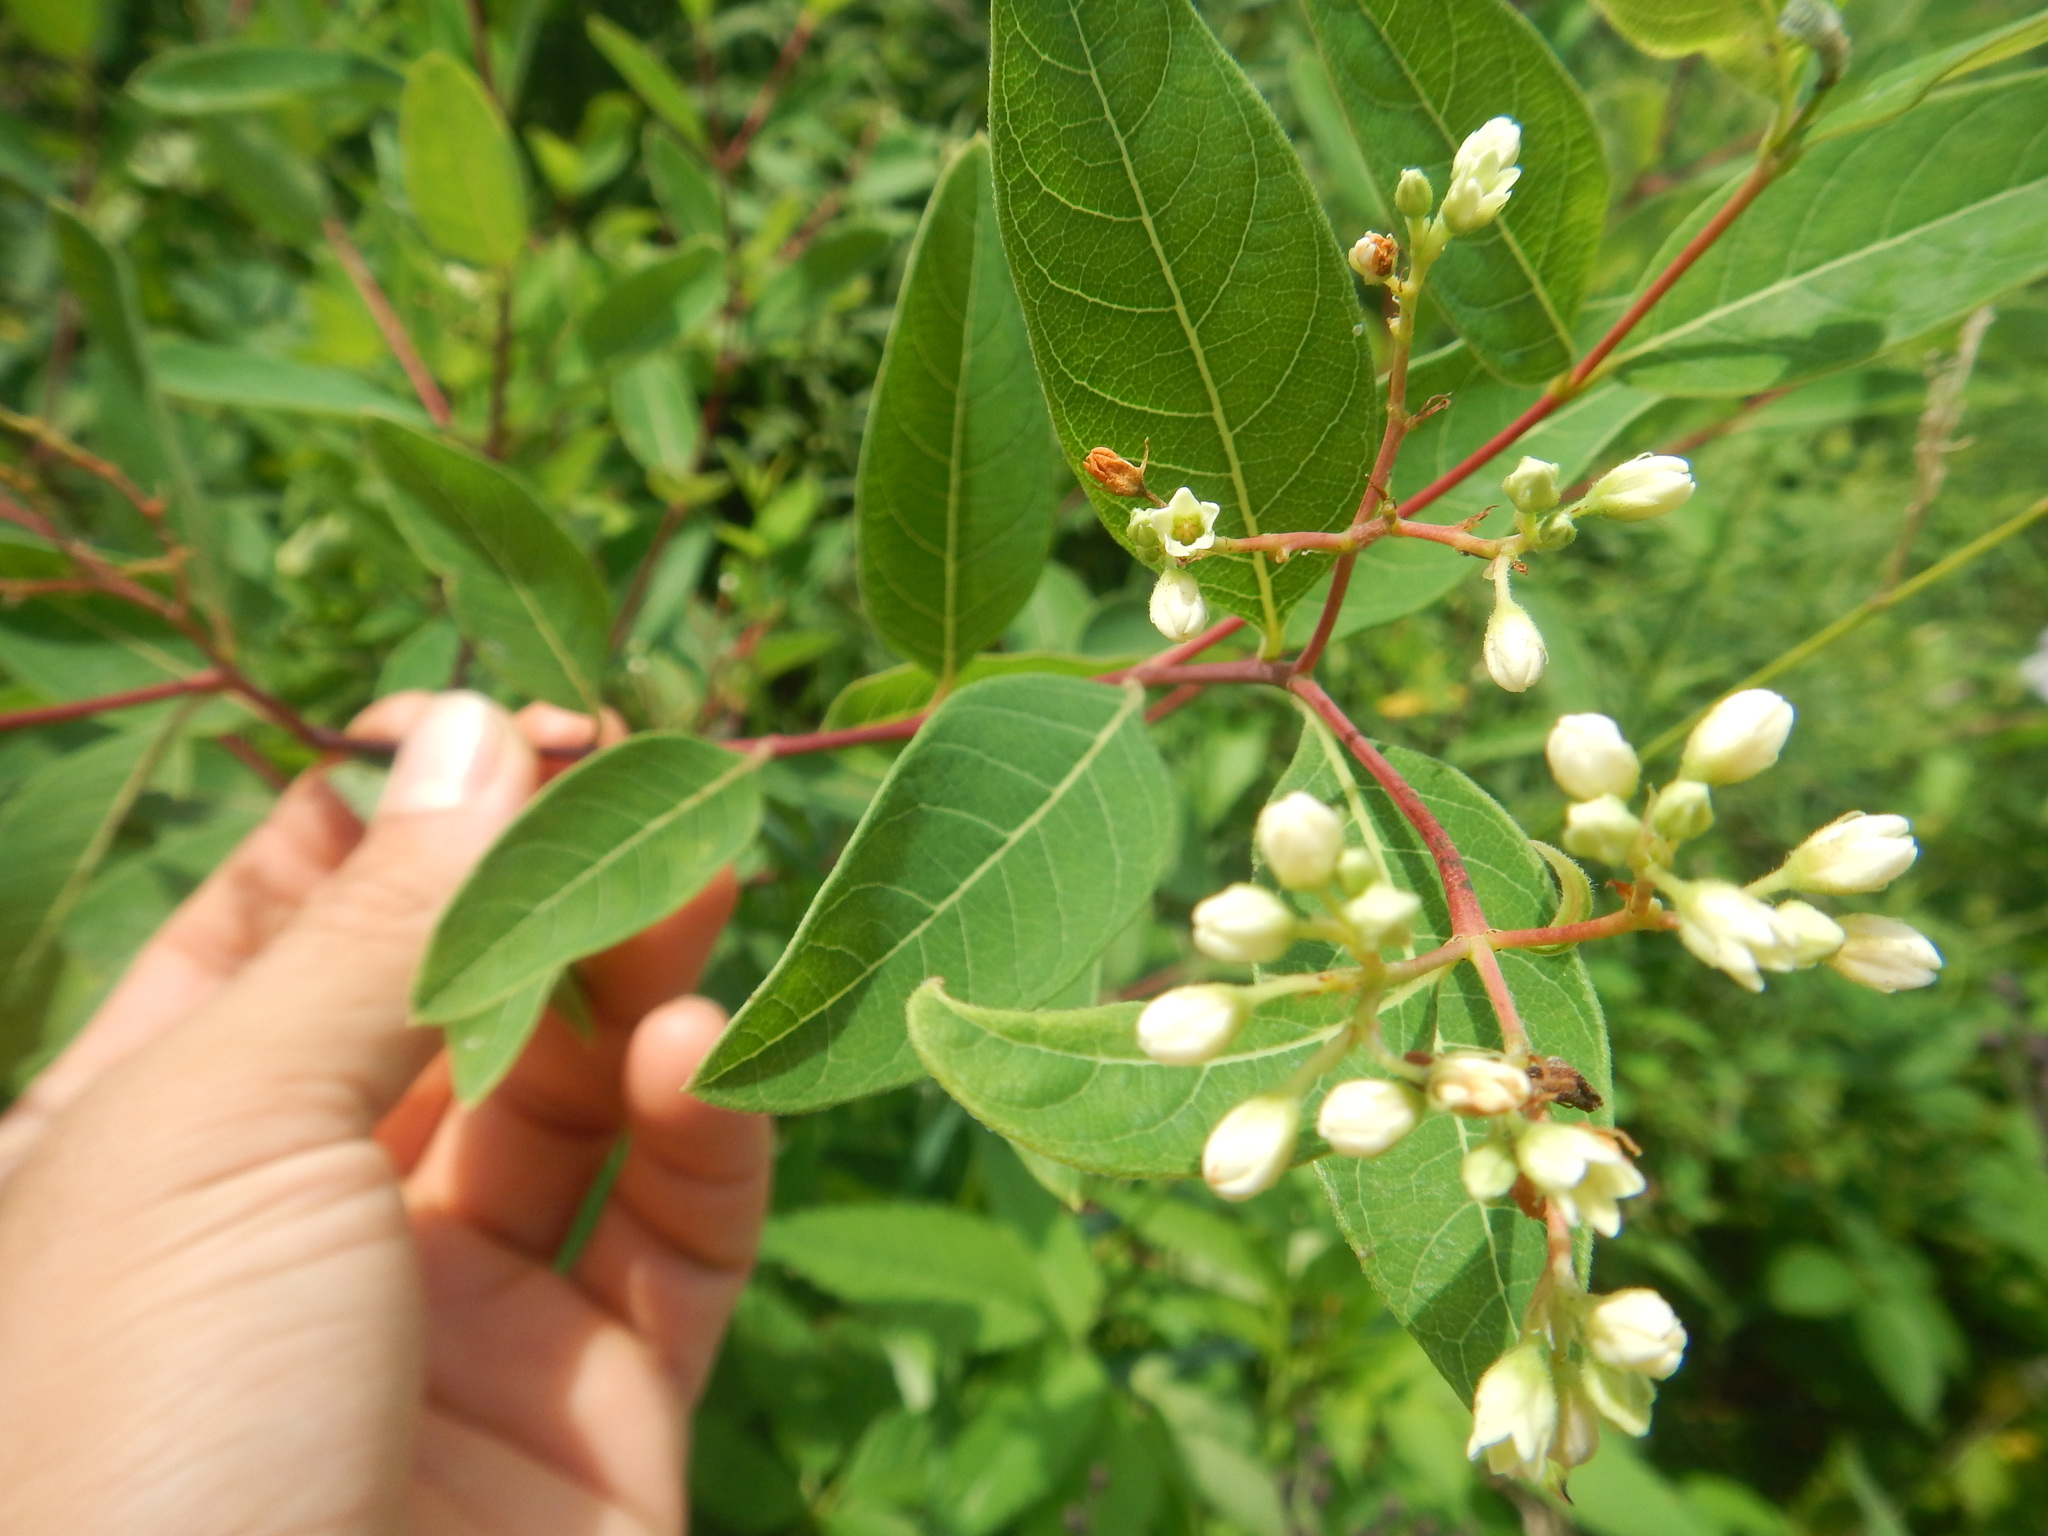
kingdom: Plantae
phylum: Tracheophyta
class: Magnoliopsida
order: Gentianales
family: Apocynaceae
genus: Apocynum
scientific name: Apocynum cannabinum
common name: Hemp dogbane
